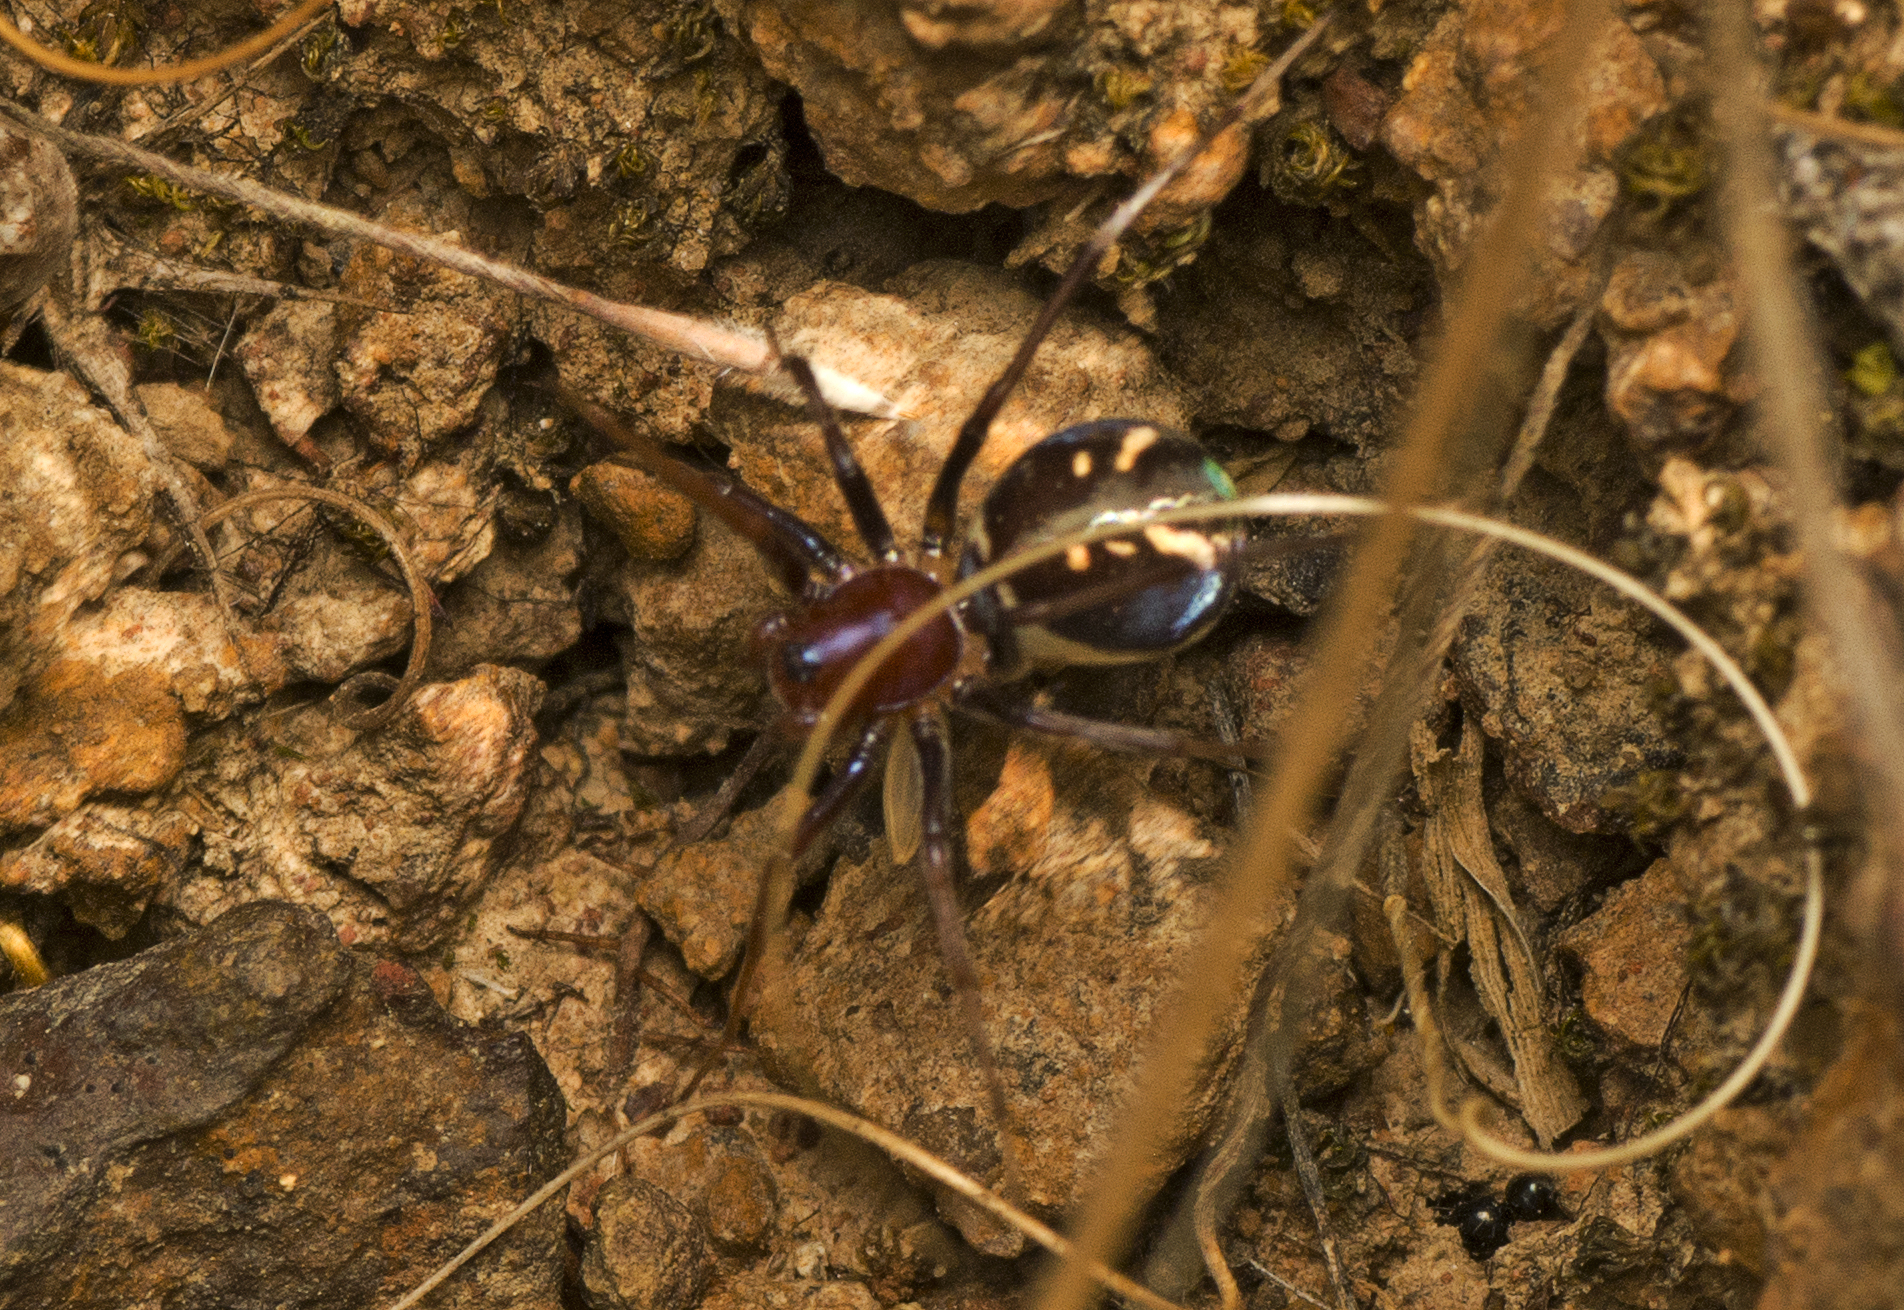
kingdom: Animalia
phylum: Arthropoda
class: Arachnida
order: Araneae
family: Zodariidae
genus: Habronestes
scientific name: Habronestes bradleyi
